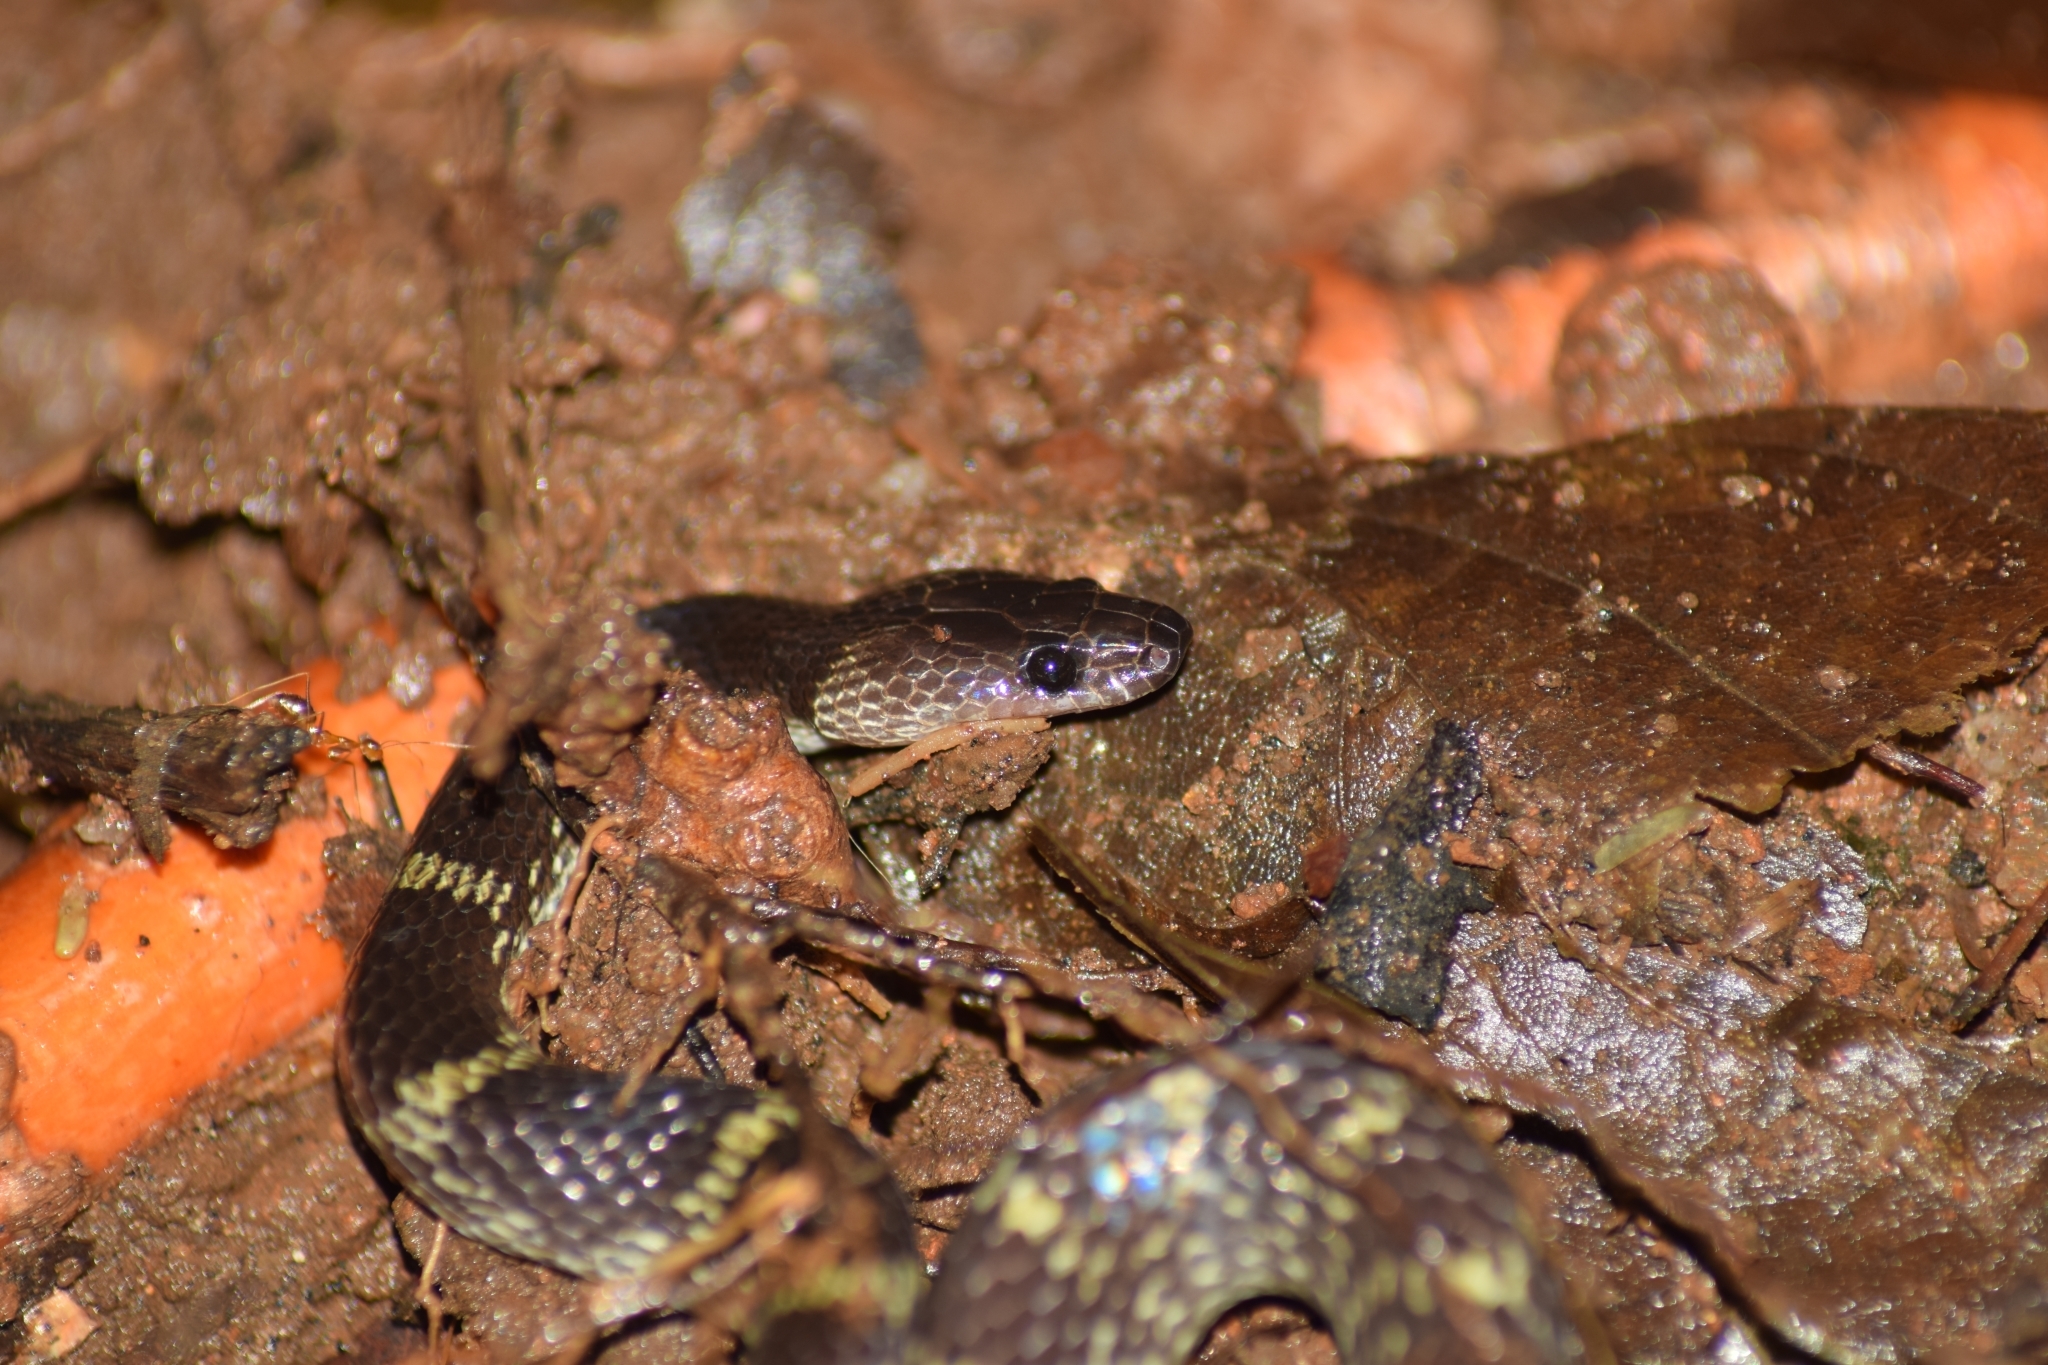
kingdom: Animalia
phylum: Chordata
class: Squamata
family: Colubridae
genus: Lycodon
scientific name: Lycodon travancoricus
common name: Travancore wolf snake
